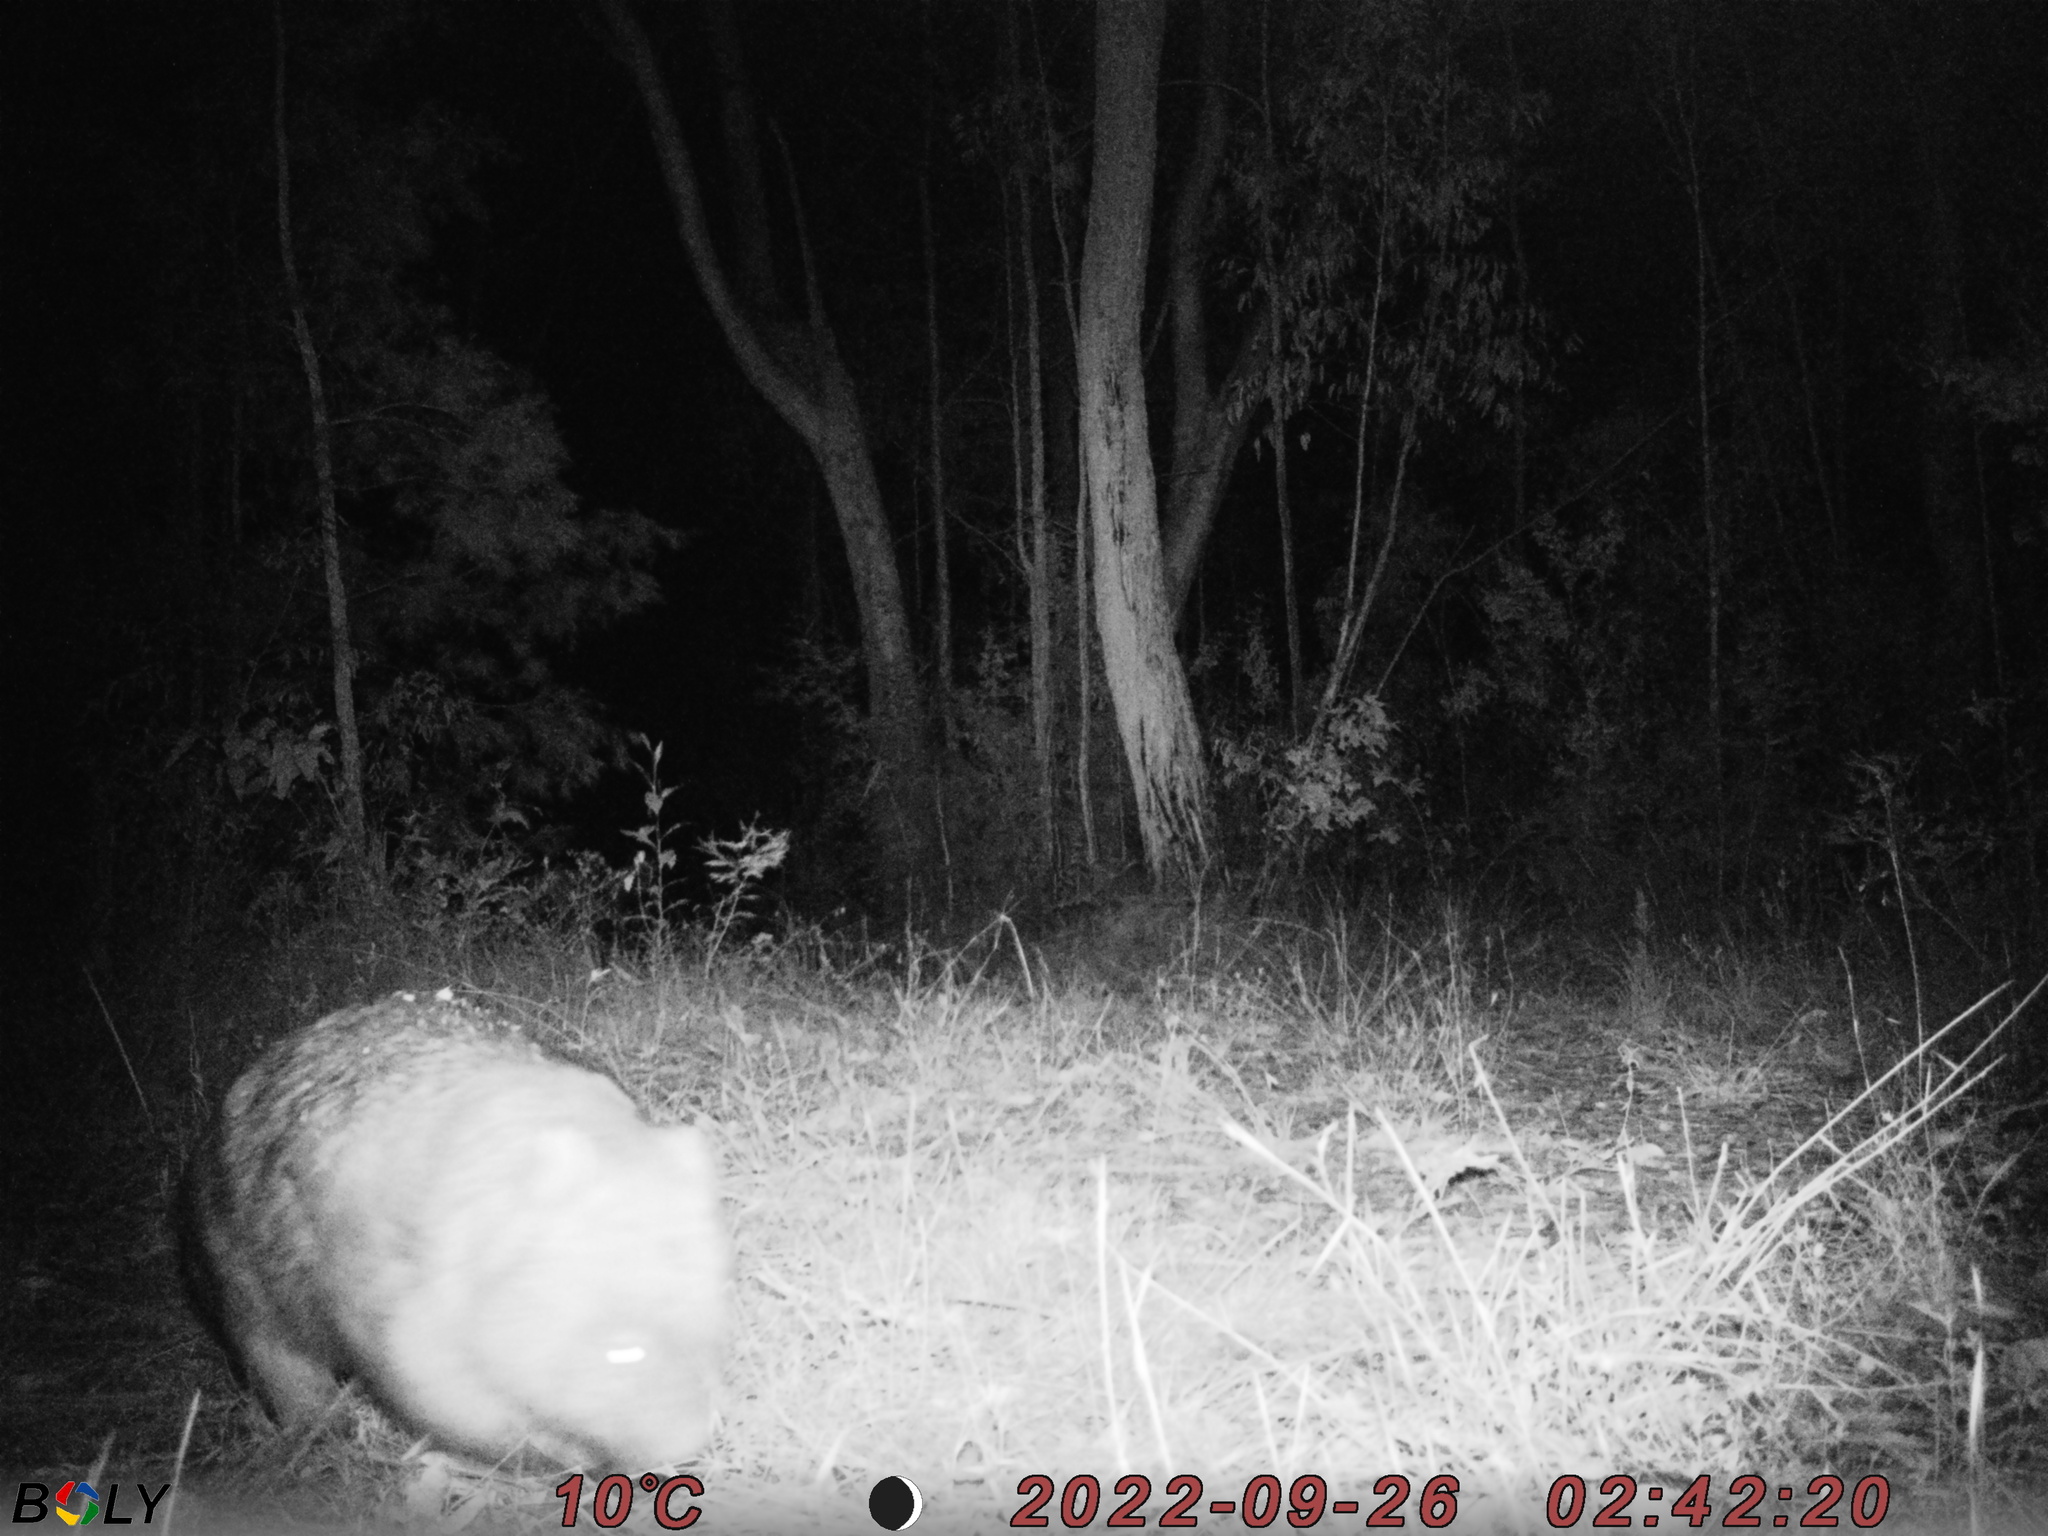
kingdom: Animalia
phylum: Chordata
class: Mammalia
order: Diprotodontia
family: Vombatidae
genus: Vombatus
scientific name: Vombatus ursinus
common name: Common wombat
